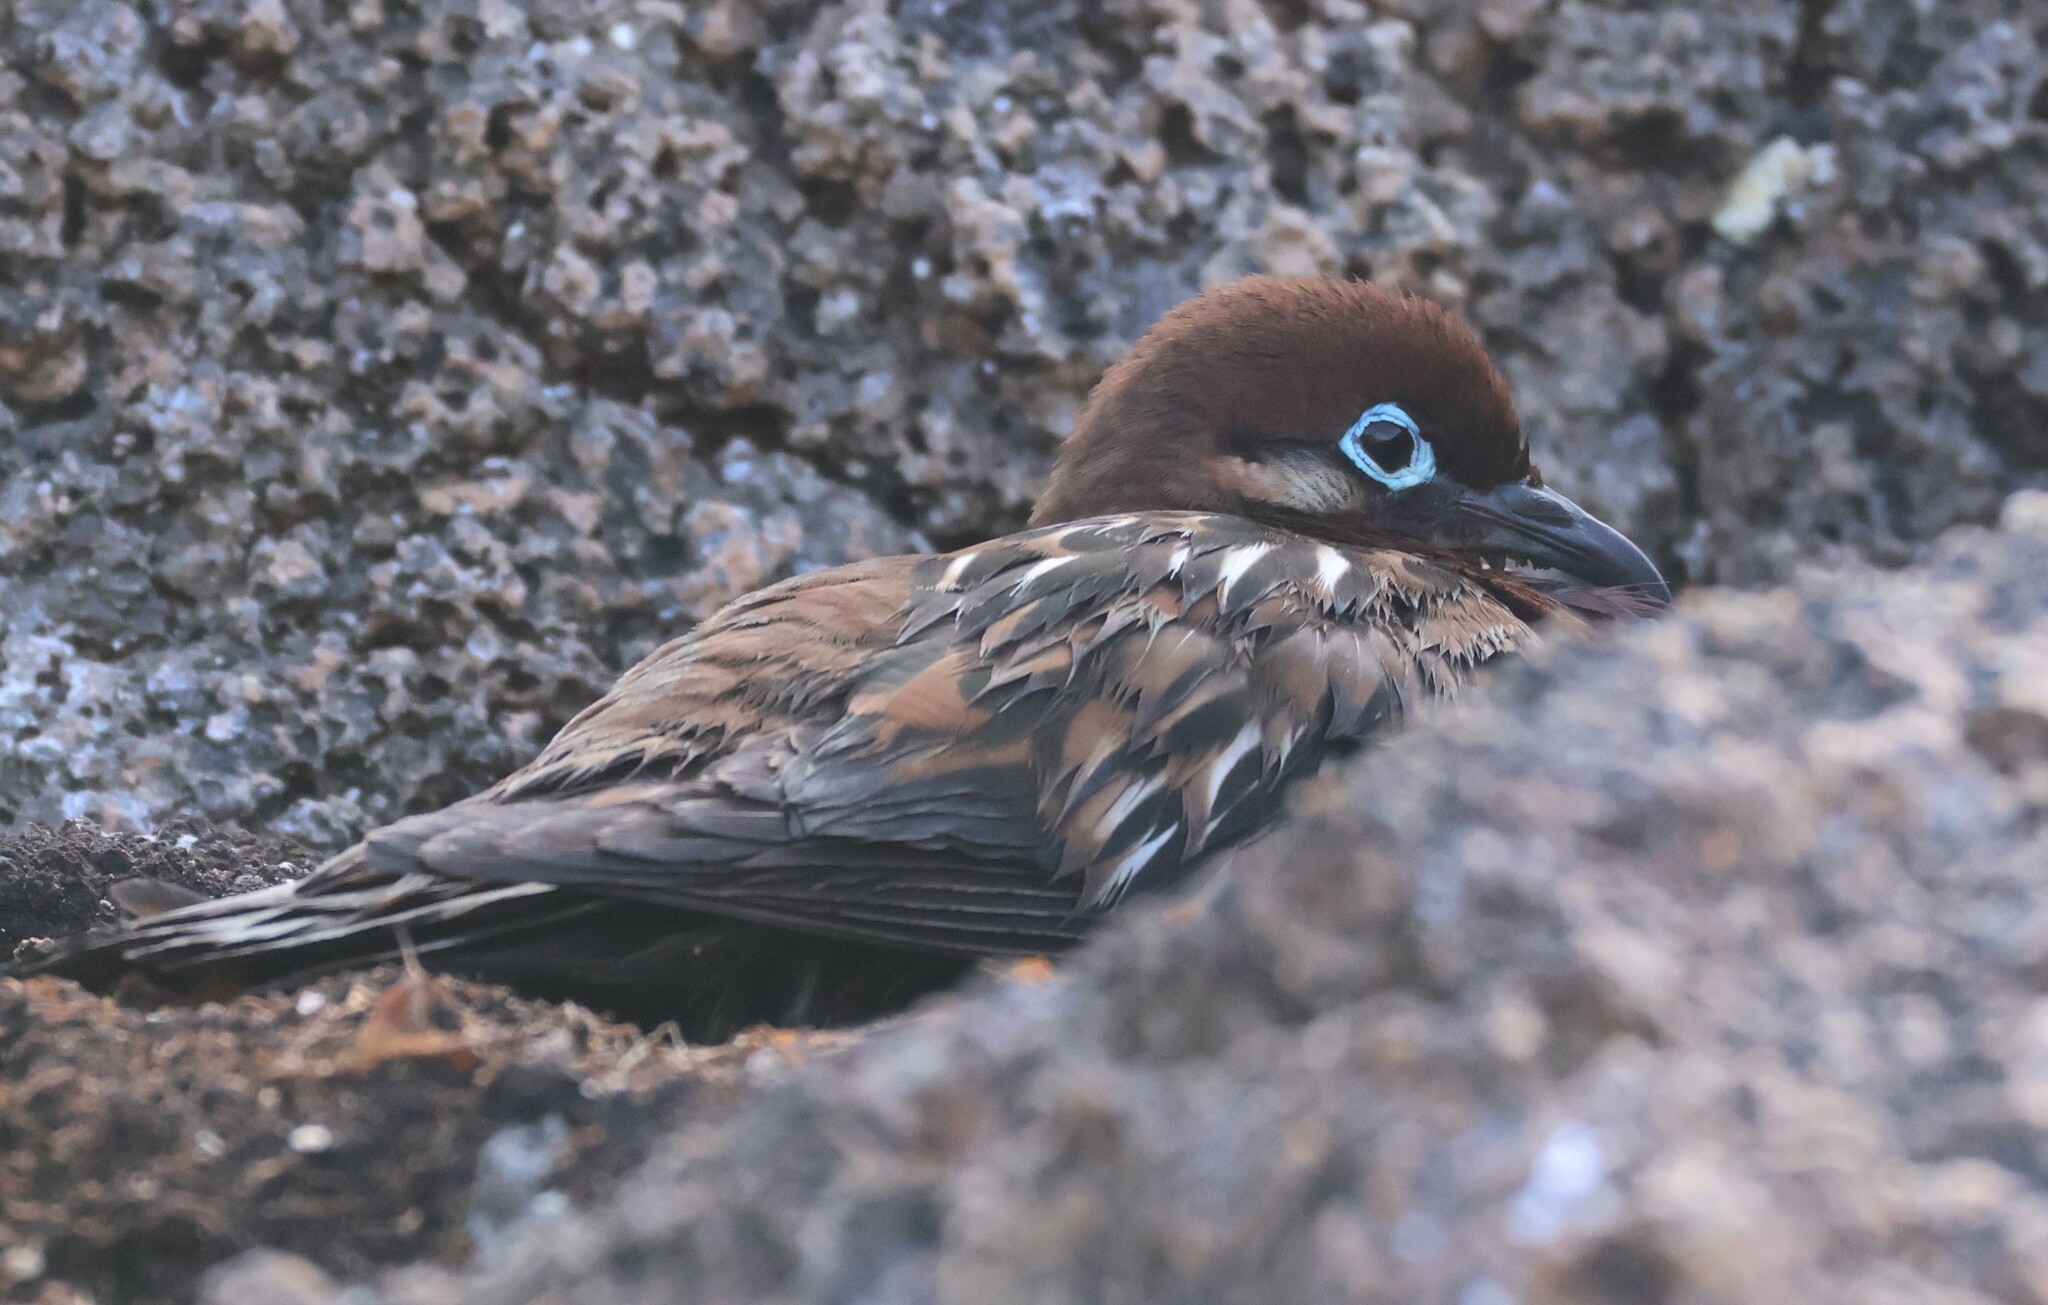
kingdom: Animalia
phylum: Chordata
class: Aves
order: Columbiformes
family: Columbidae
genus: Zenaida
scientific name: Zenaida galapagoensis
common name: Galapagos dove
